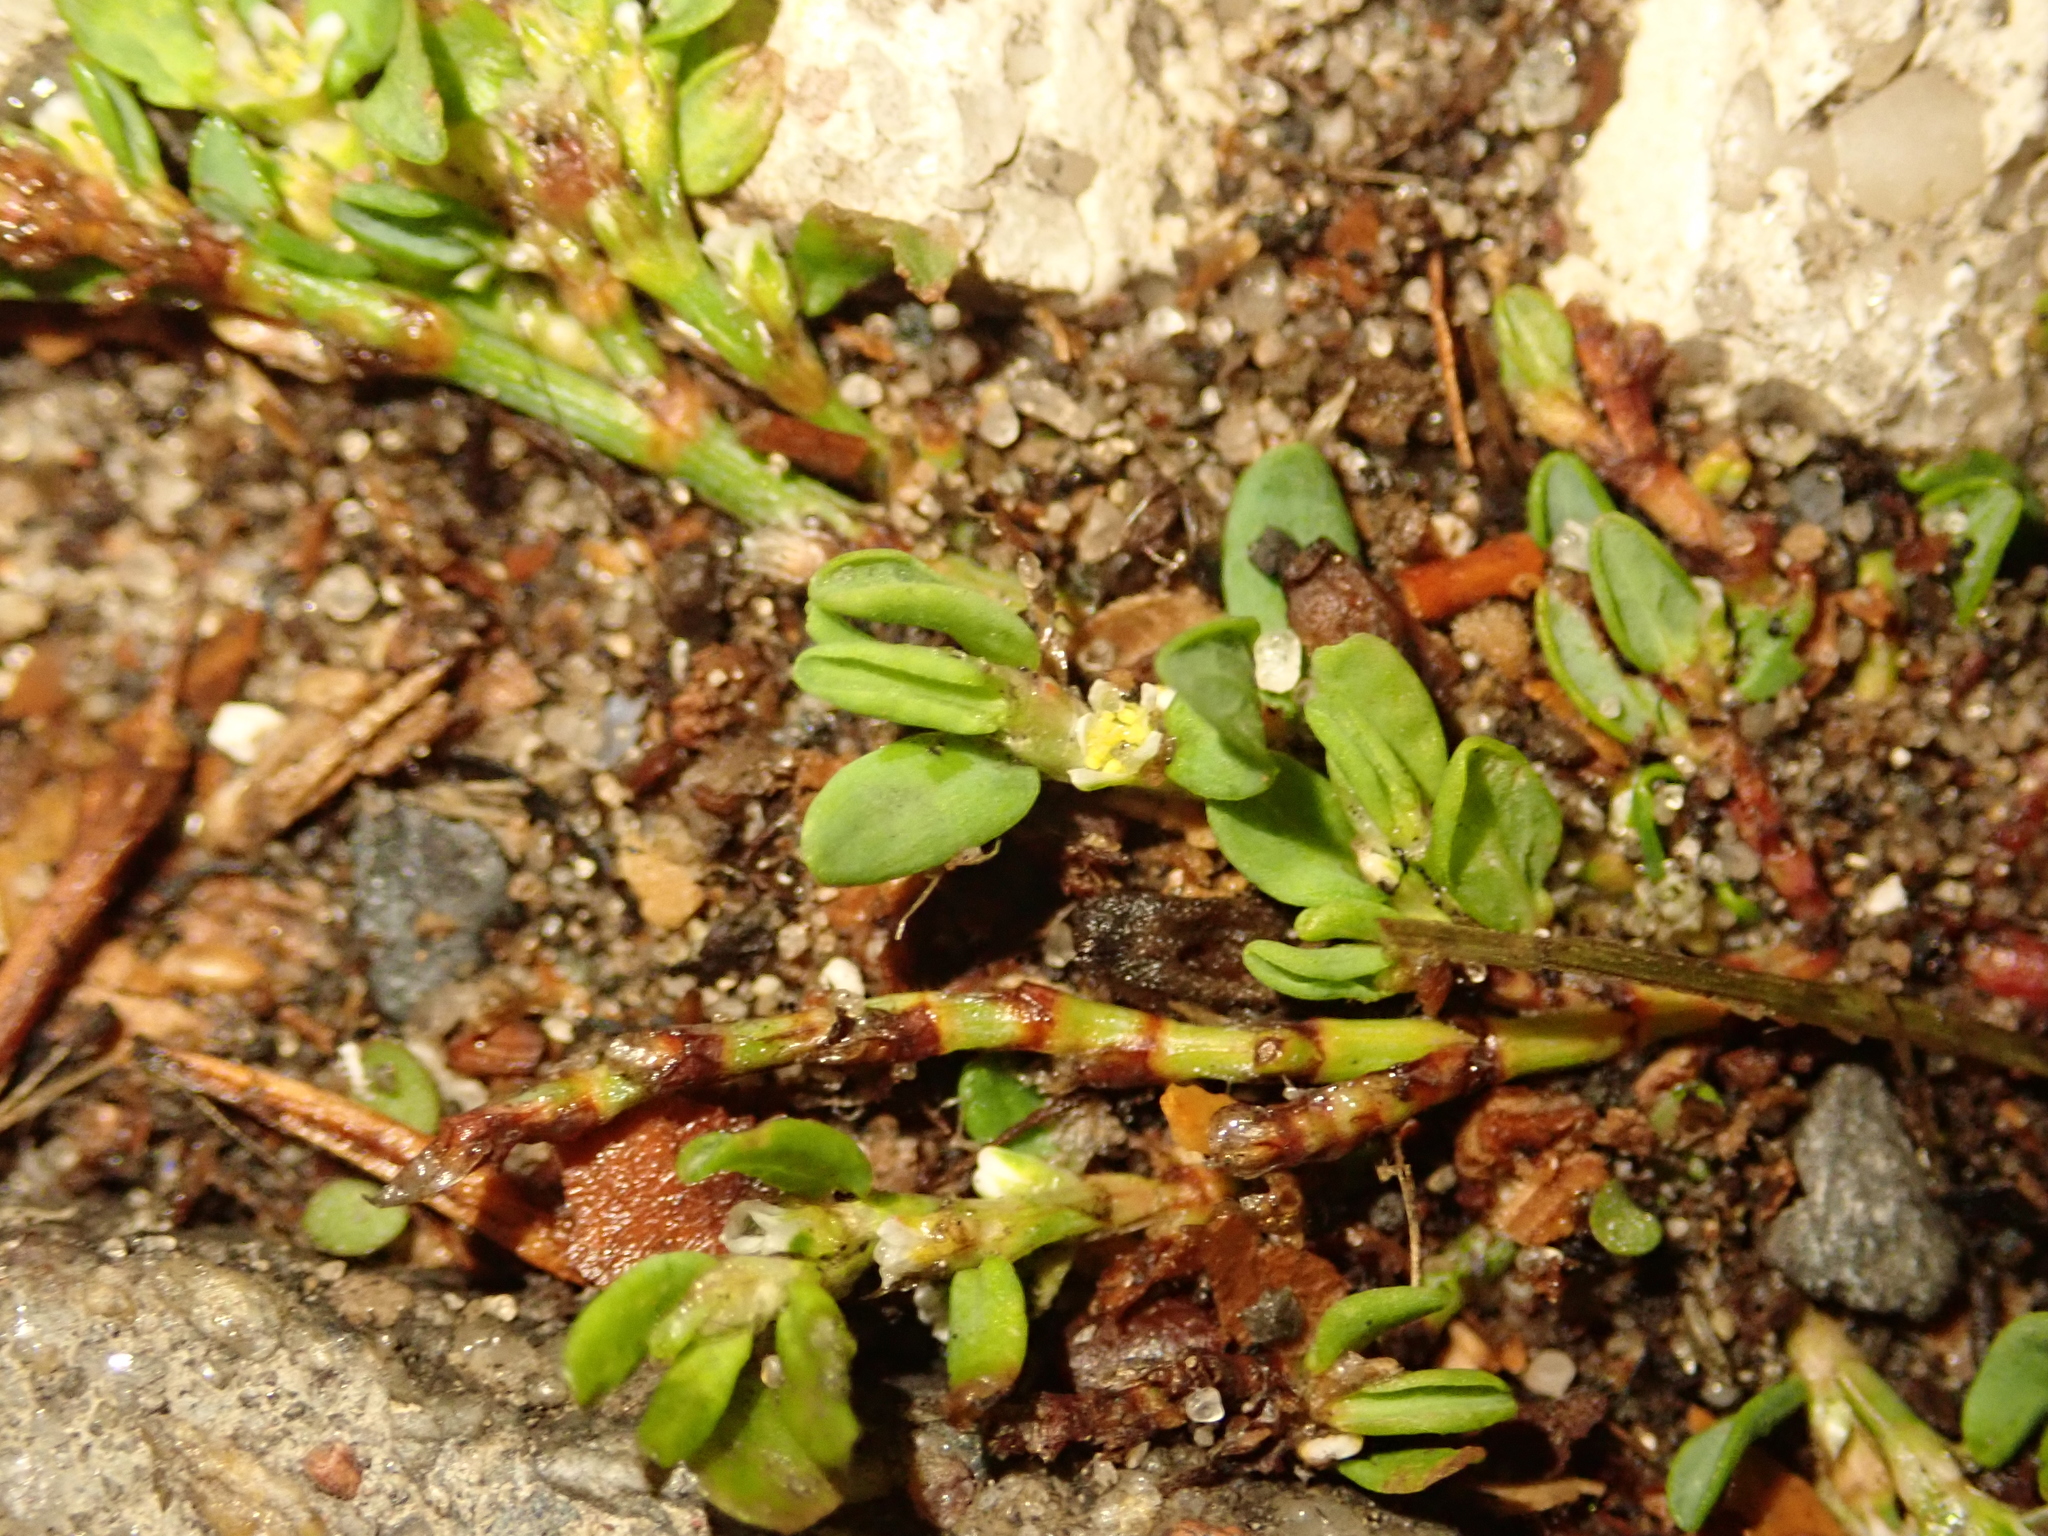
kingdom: Plantae
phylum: Tracheophyta
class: Magnoliopsida
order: Caryophyllales
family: Polygonaceae
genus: Polygonum
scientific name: Polygonum arenastrum
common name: Equal-leaved knotgrass
